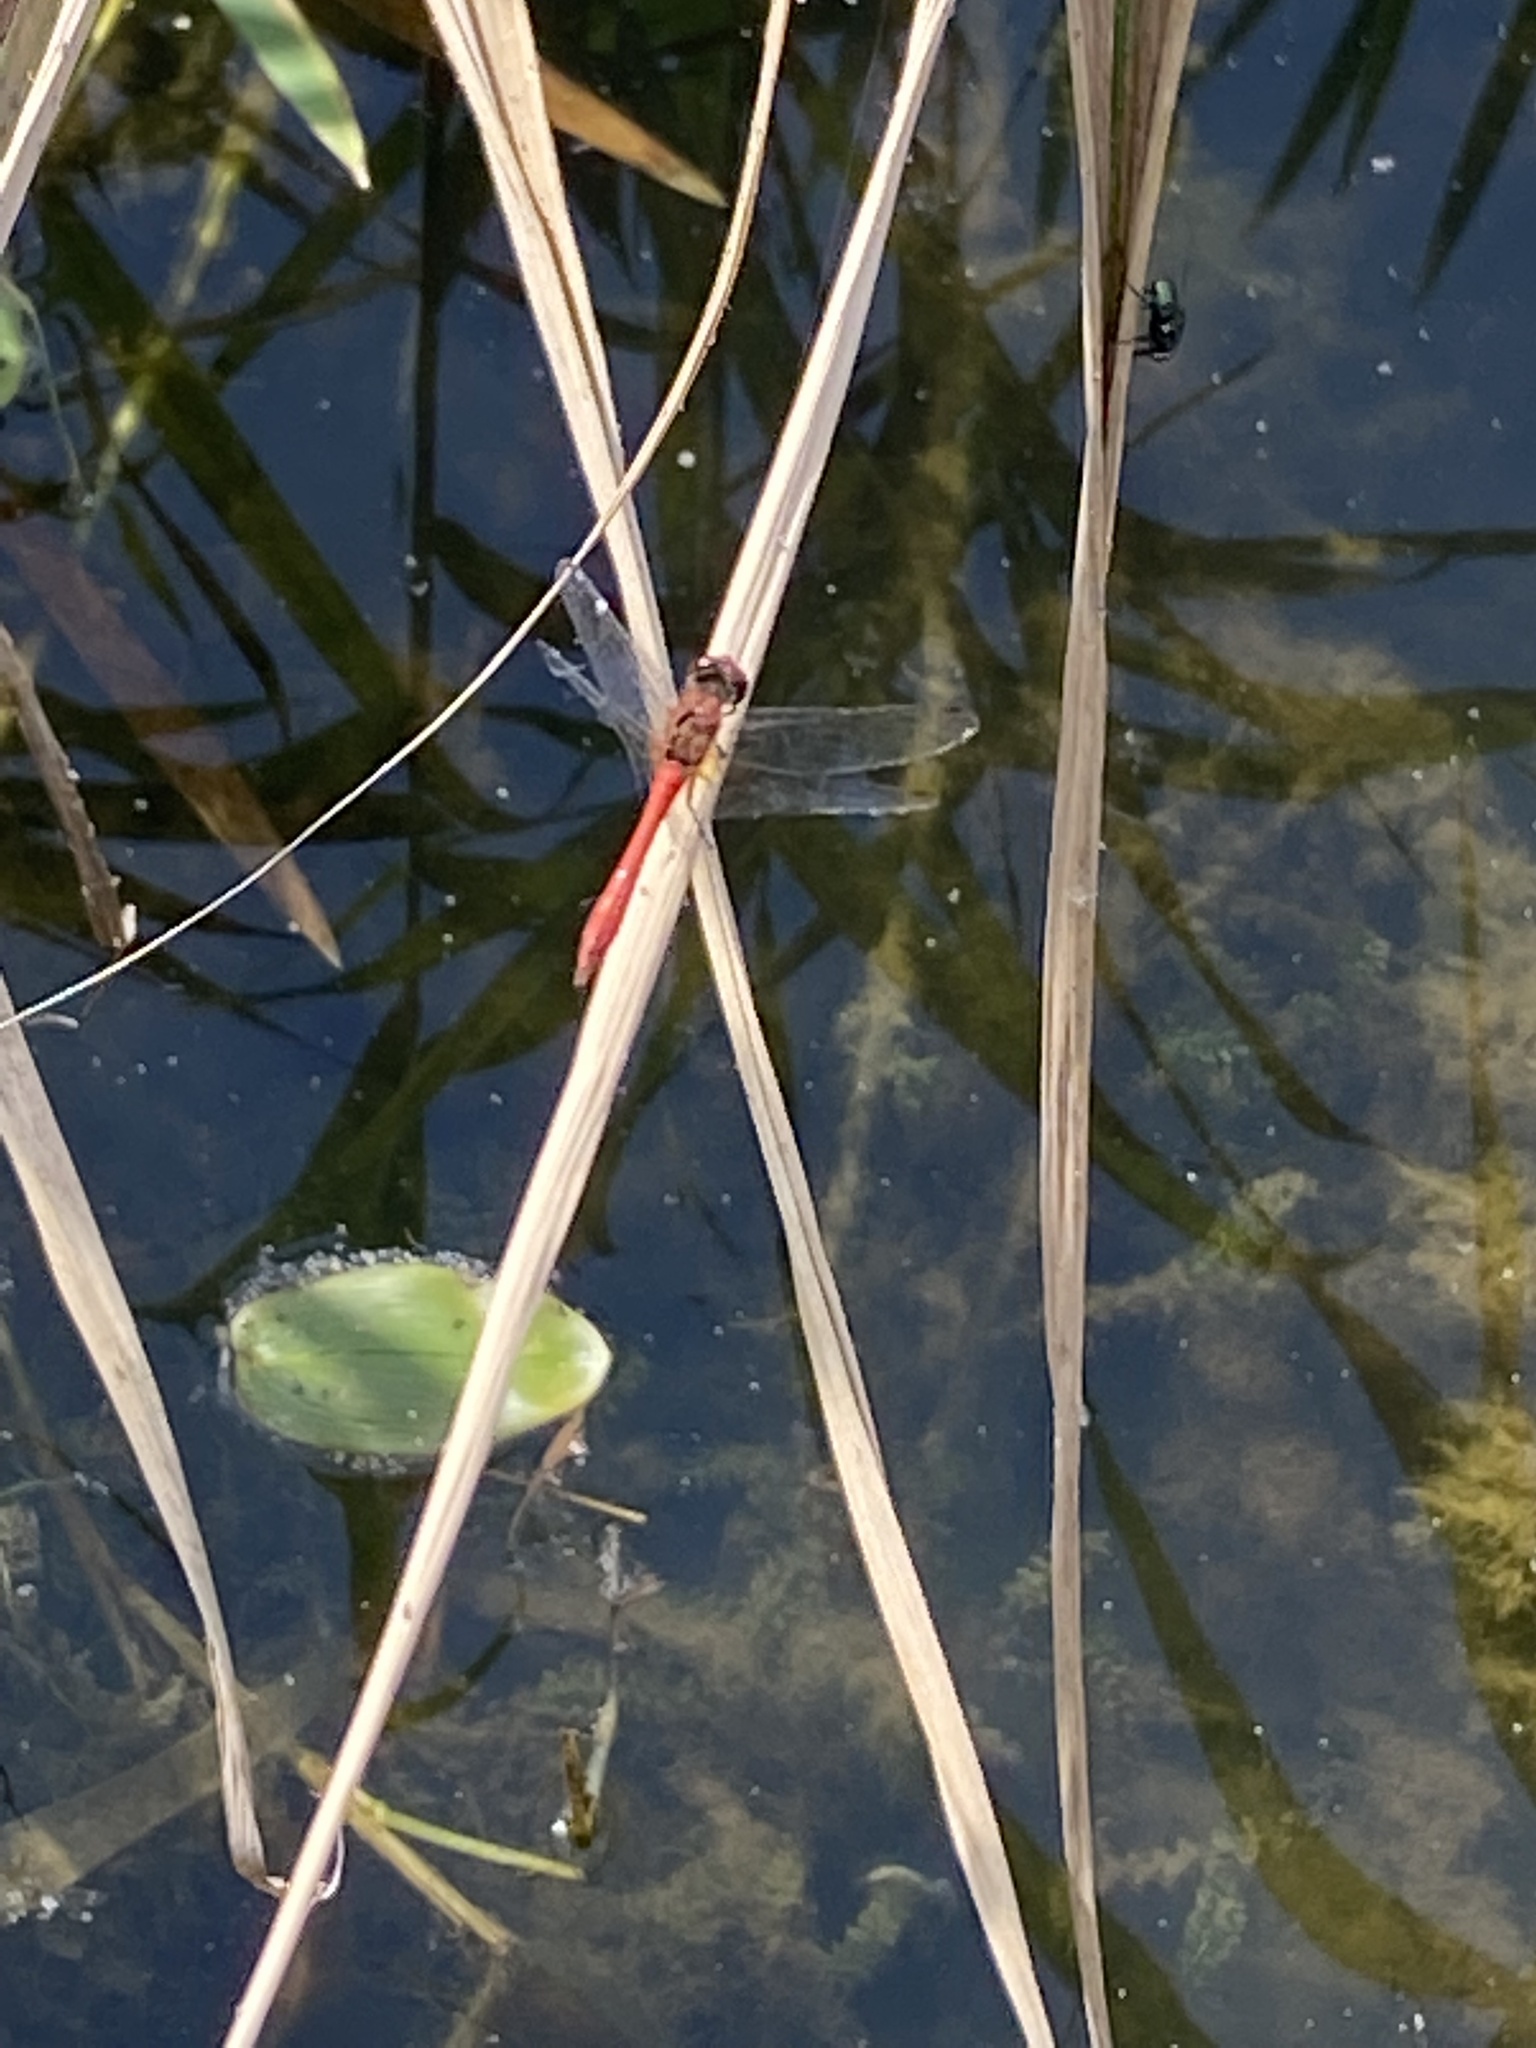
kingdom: Animalia
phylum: Arthropoda
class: Insecta
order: Odonata
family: Libellulidae
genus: Sympetrum
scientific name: Sympetrum sanguineum
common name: Ruddy darter
